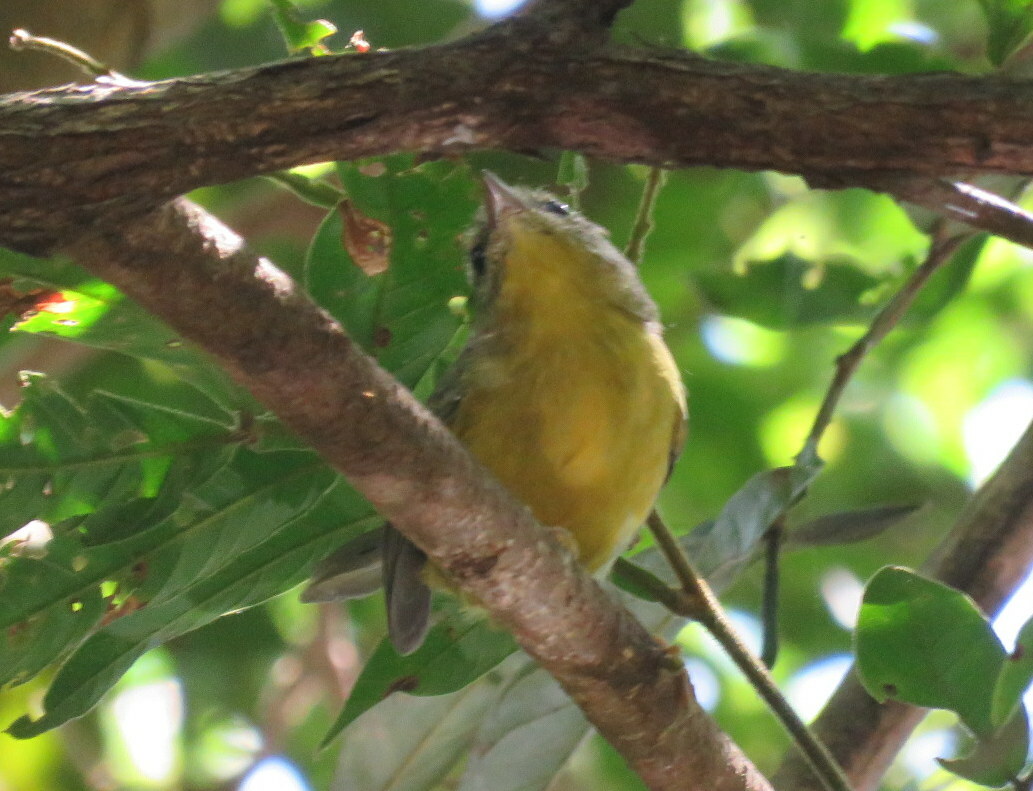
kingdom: Animalia
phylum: Chordata
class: Aves
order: Passeriformes
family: Thamnophilidae
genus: Dysithamnus
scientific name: Dysithamnus mentalis
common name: Plain antvireo
